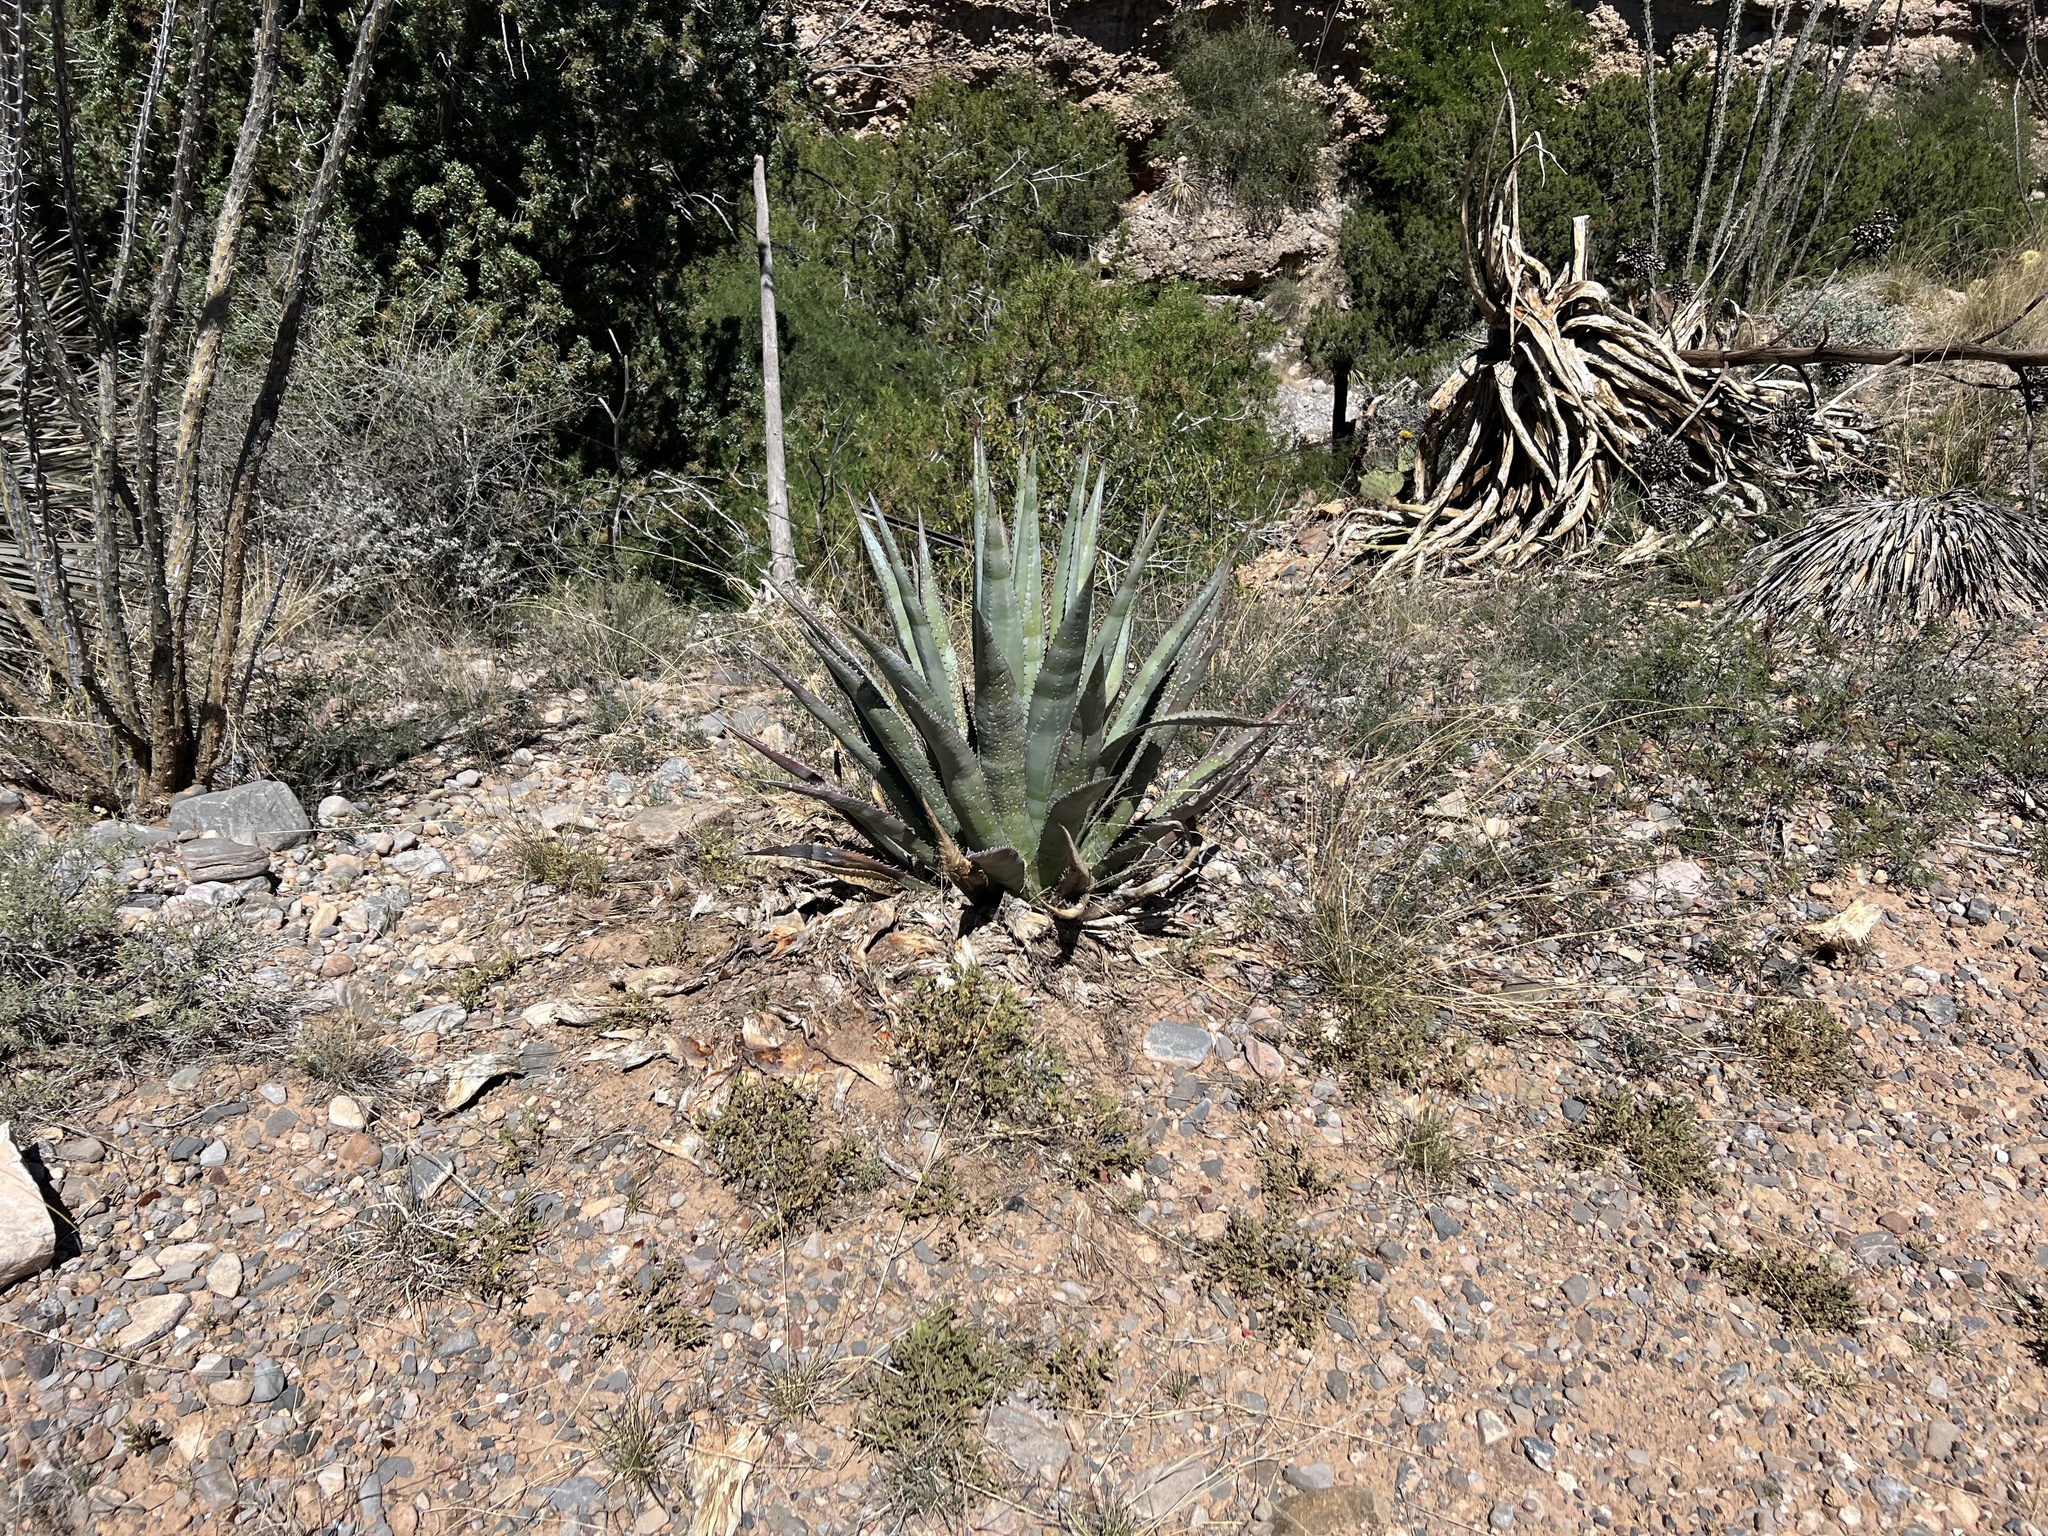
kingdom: Plantae
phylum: Tracheophyta
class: Liliopsida
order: Asparagales
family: Asparagaceae
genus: Agave
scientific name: Agave palmeri
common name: Palmer agave
